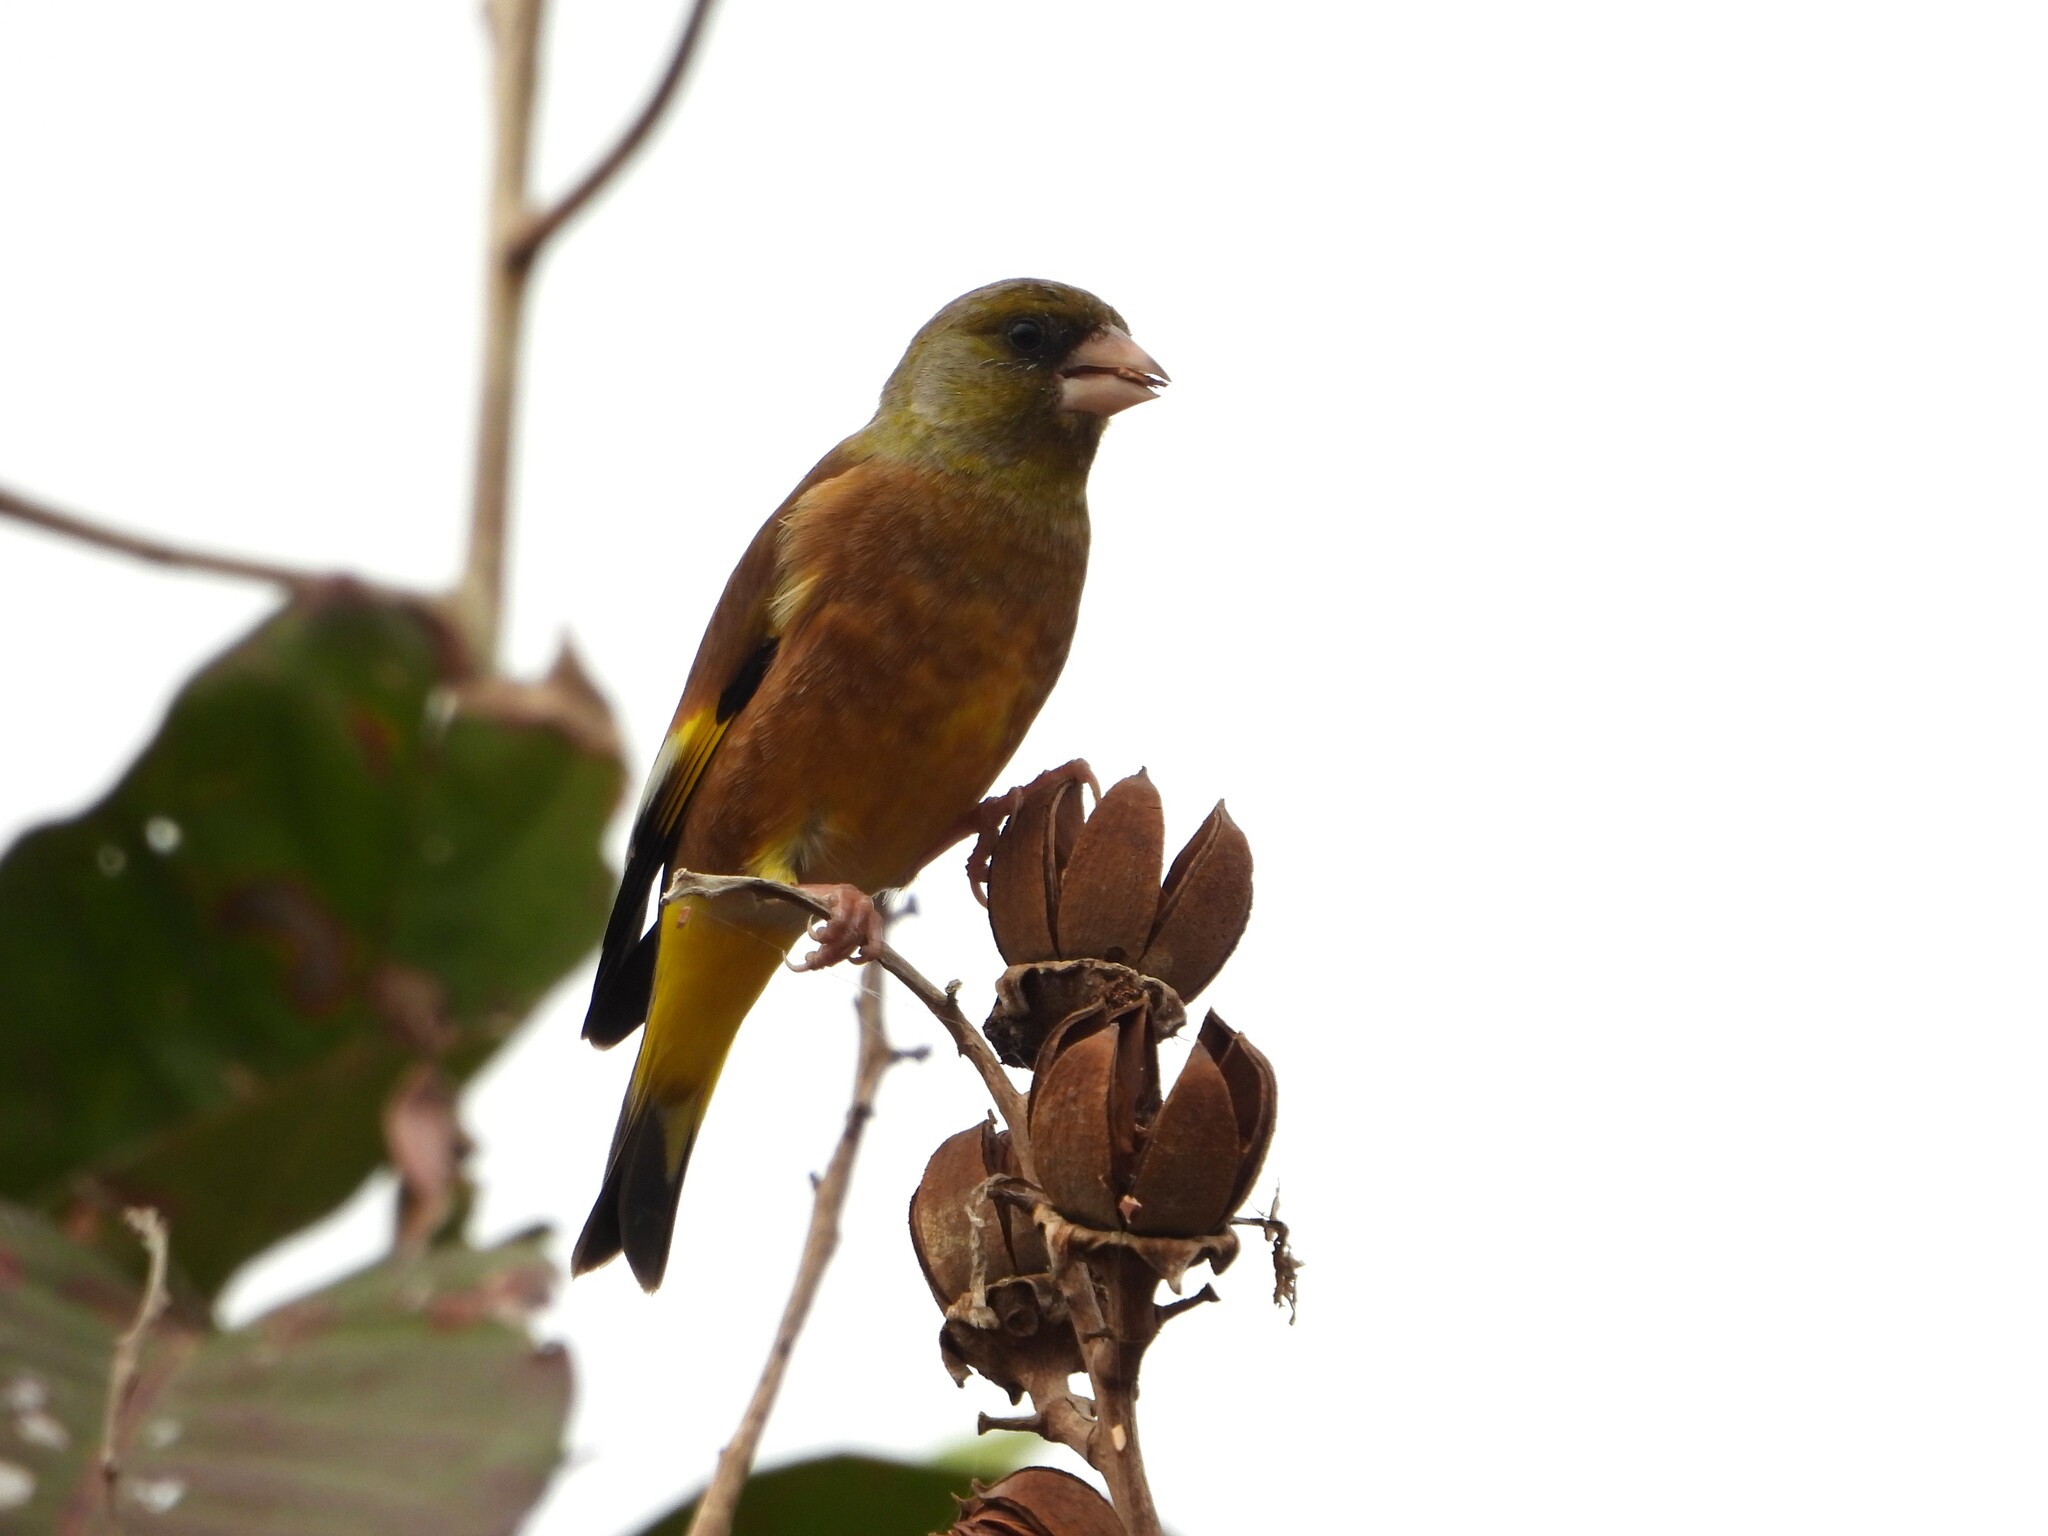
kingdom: Plantae
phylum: Tracheophyta
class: Liliopsida
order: Poales
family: Poaceae
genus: Chloris
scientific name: Chloris sinica
